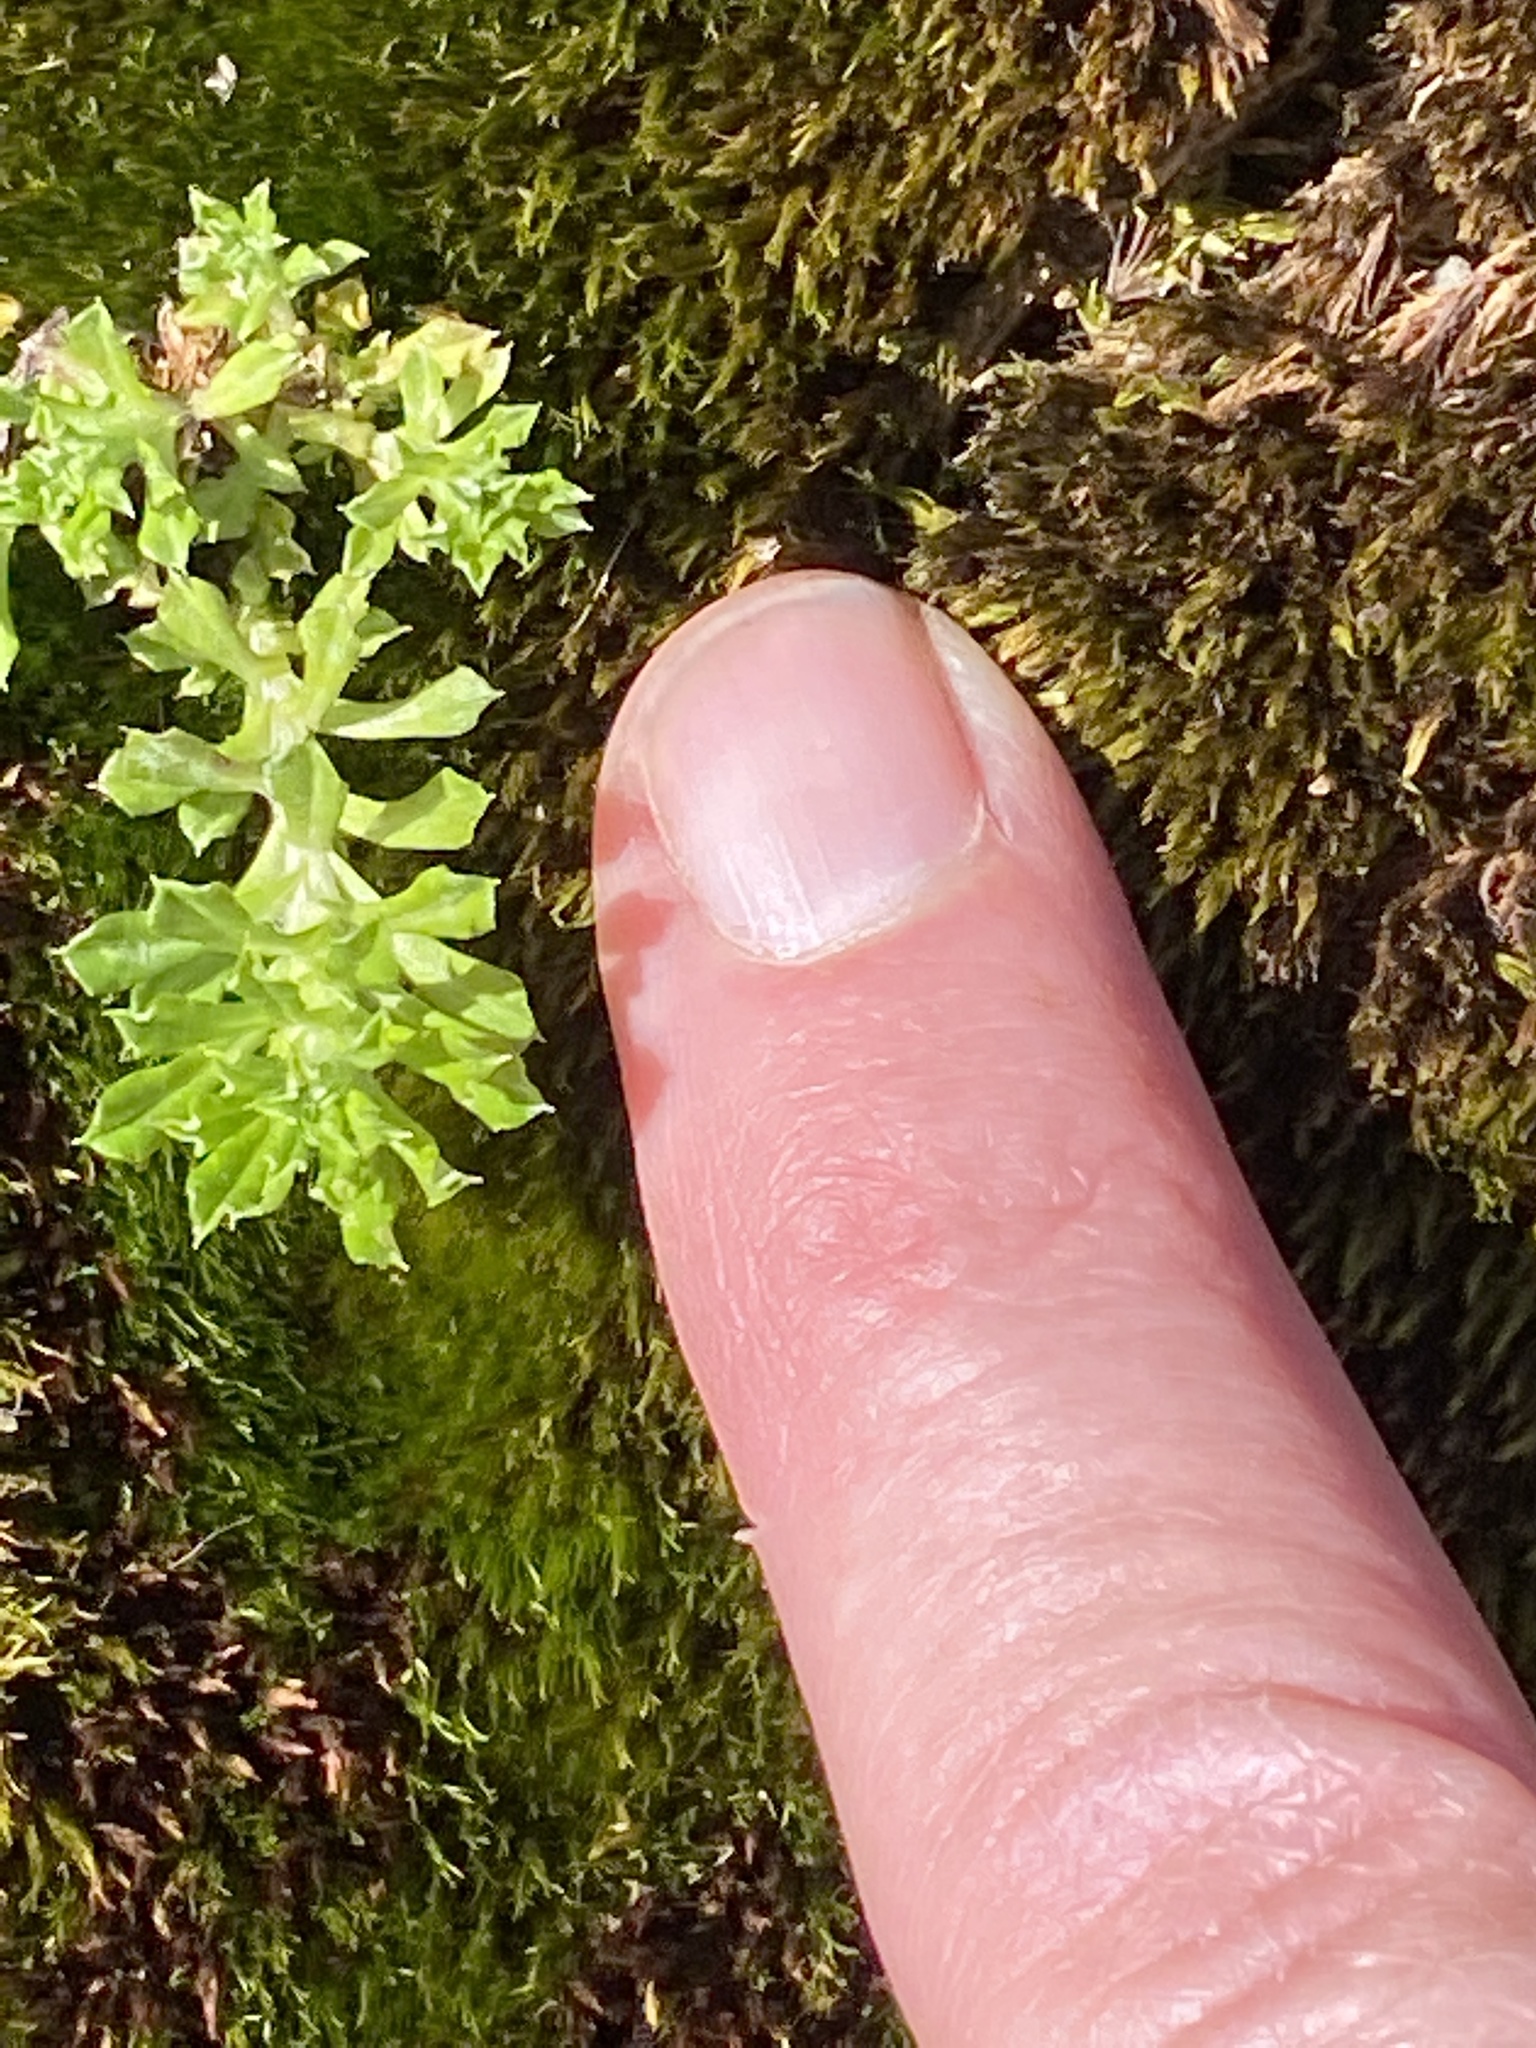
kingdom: Plantae
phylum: Tracheophyta
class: Magnoliopsida
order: Asterales
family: Asteraceae
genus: Facelis
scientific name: Facelis retusa
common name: Annual trampweed
